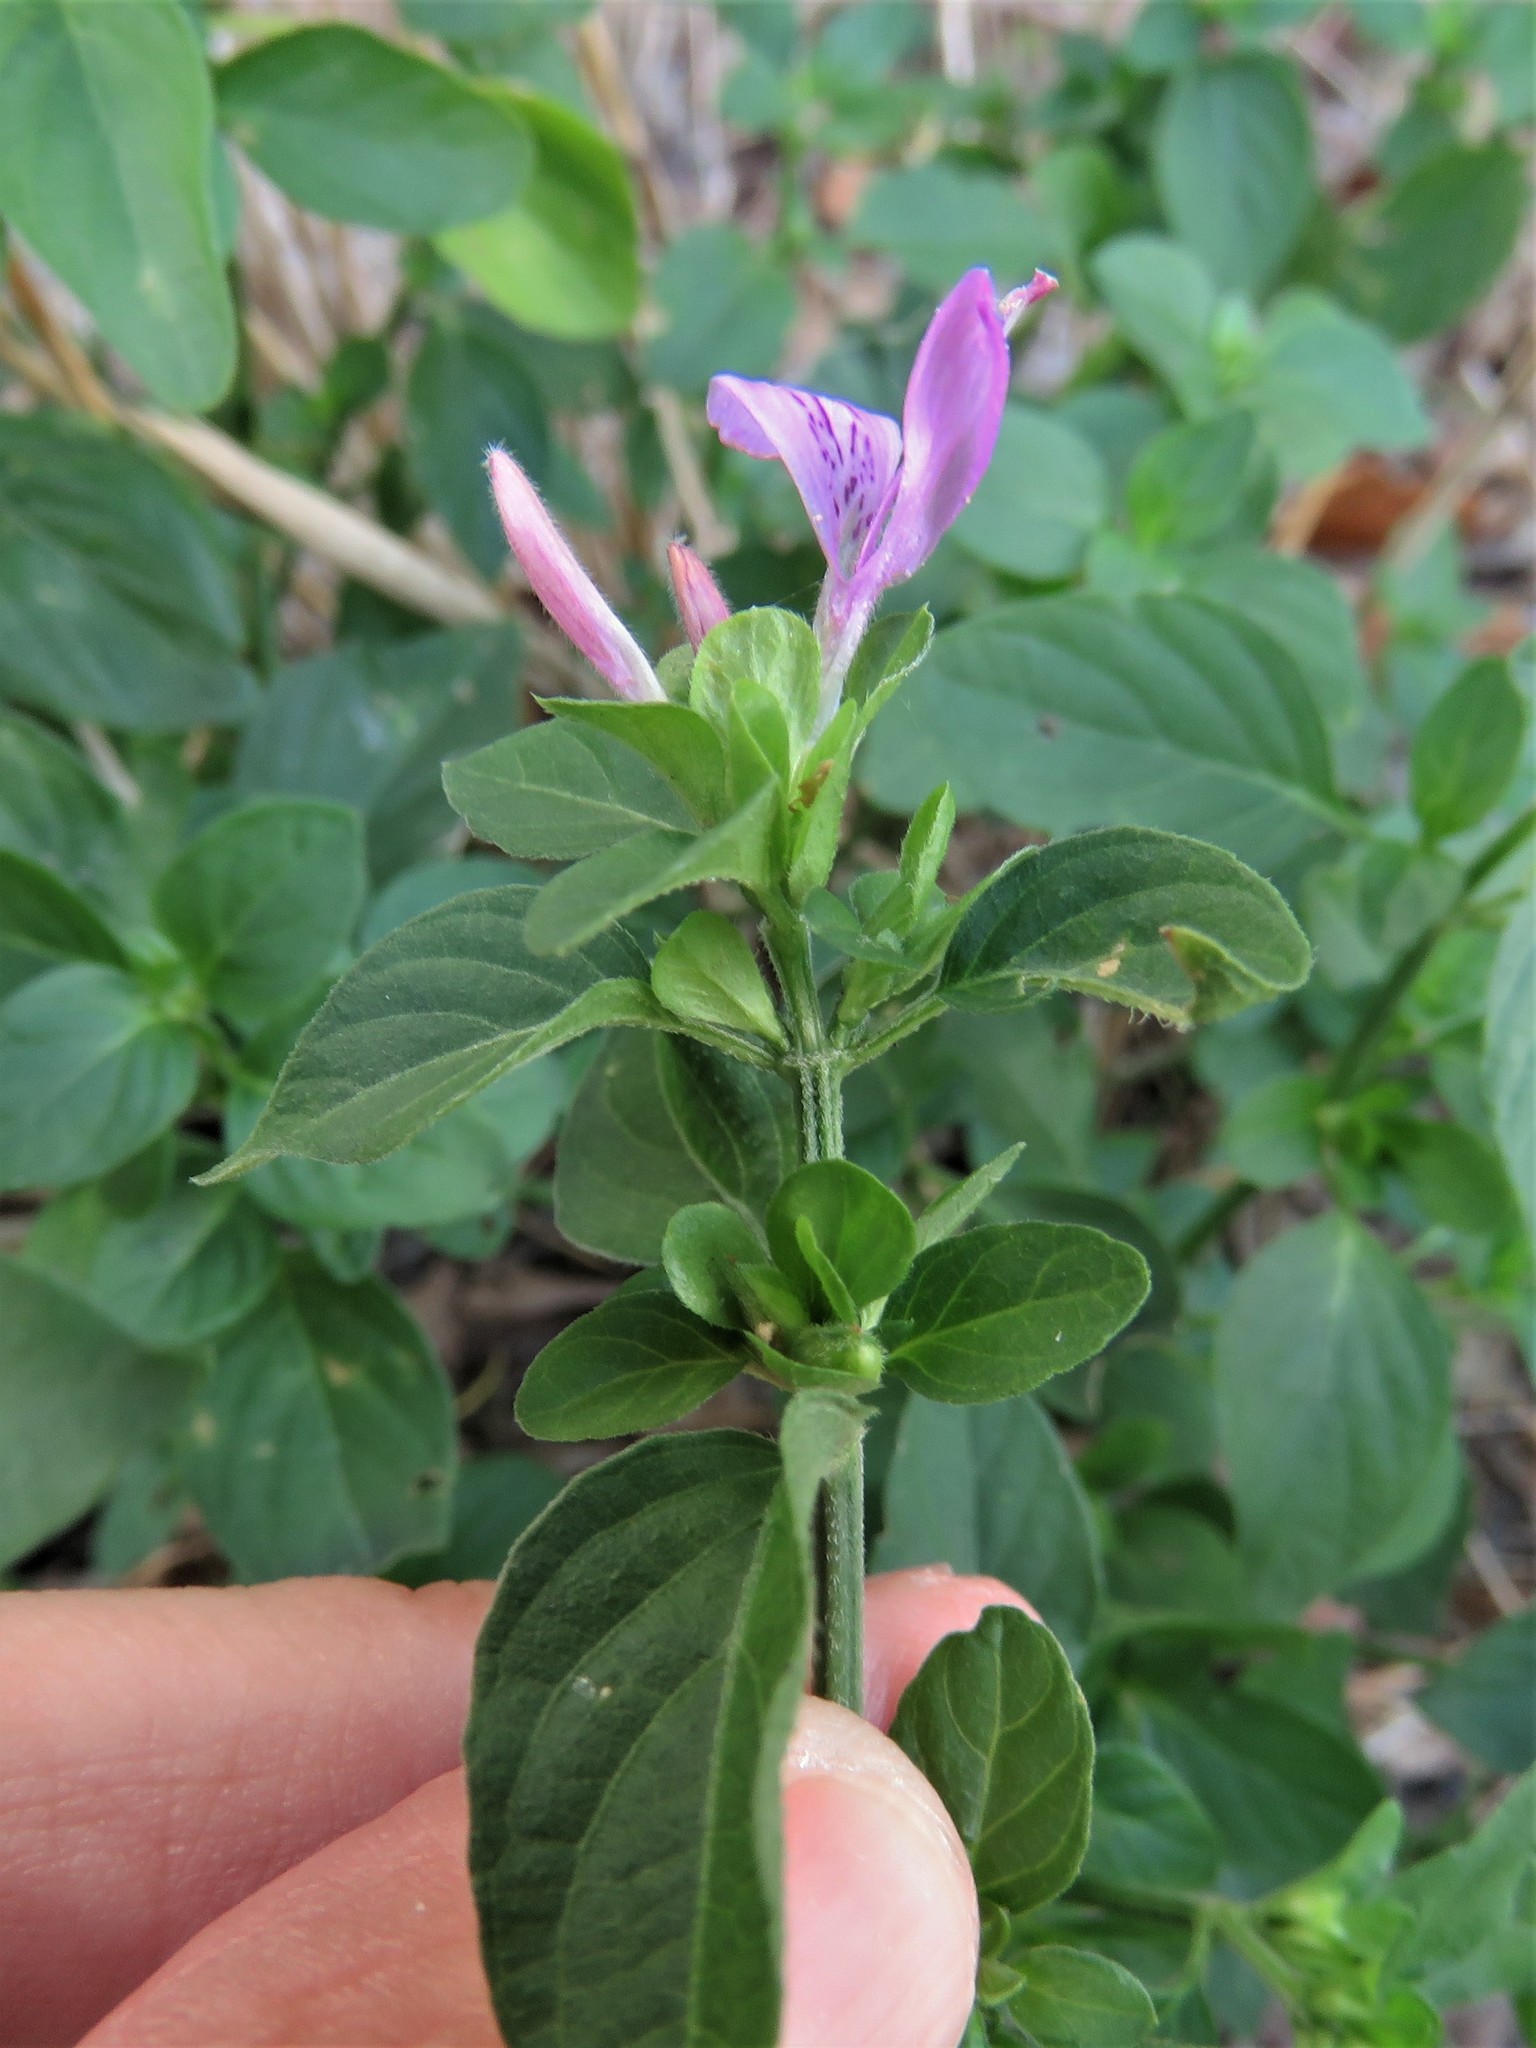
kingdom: Plantae
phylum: Tracheophyta
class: Magnoliopsida
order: Lamiales
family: Acanthaceae
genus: Dicliptera
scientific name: Dicliptera brachiata
